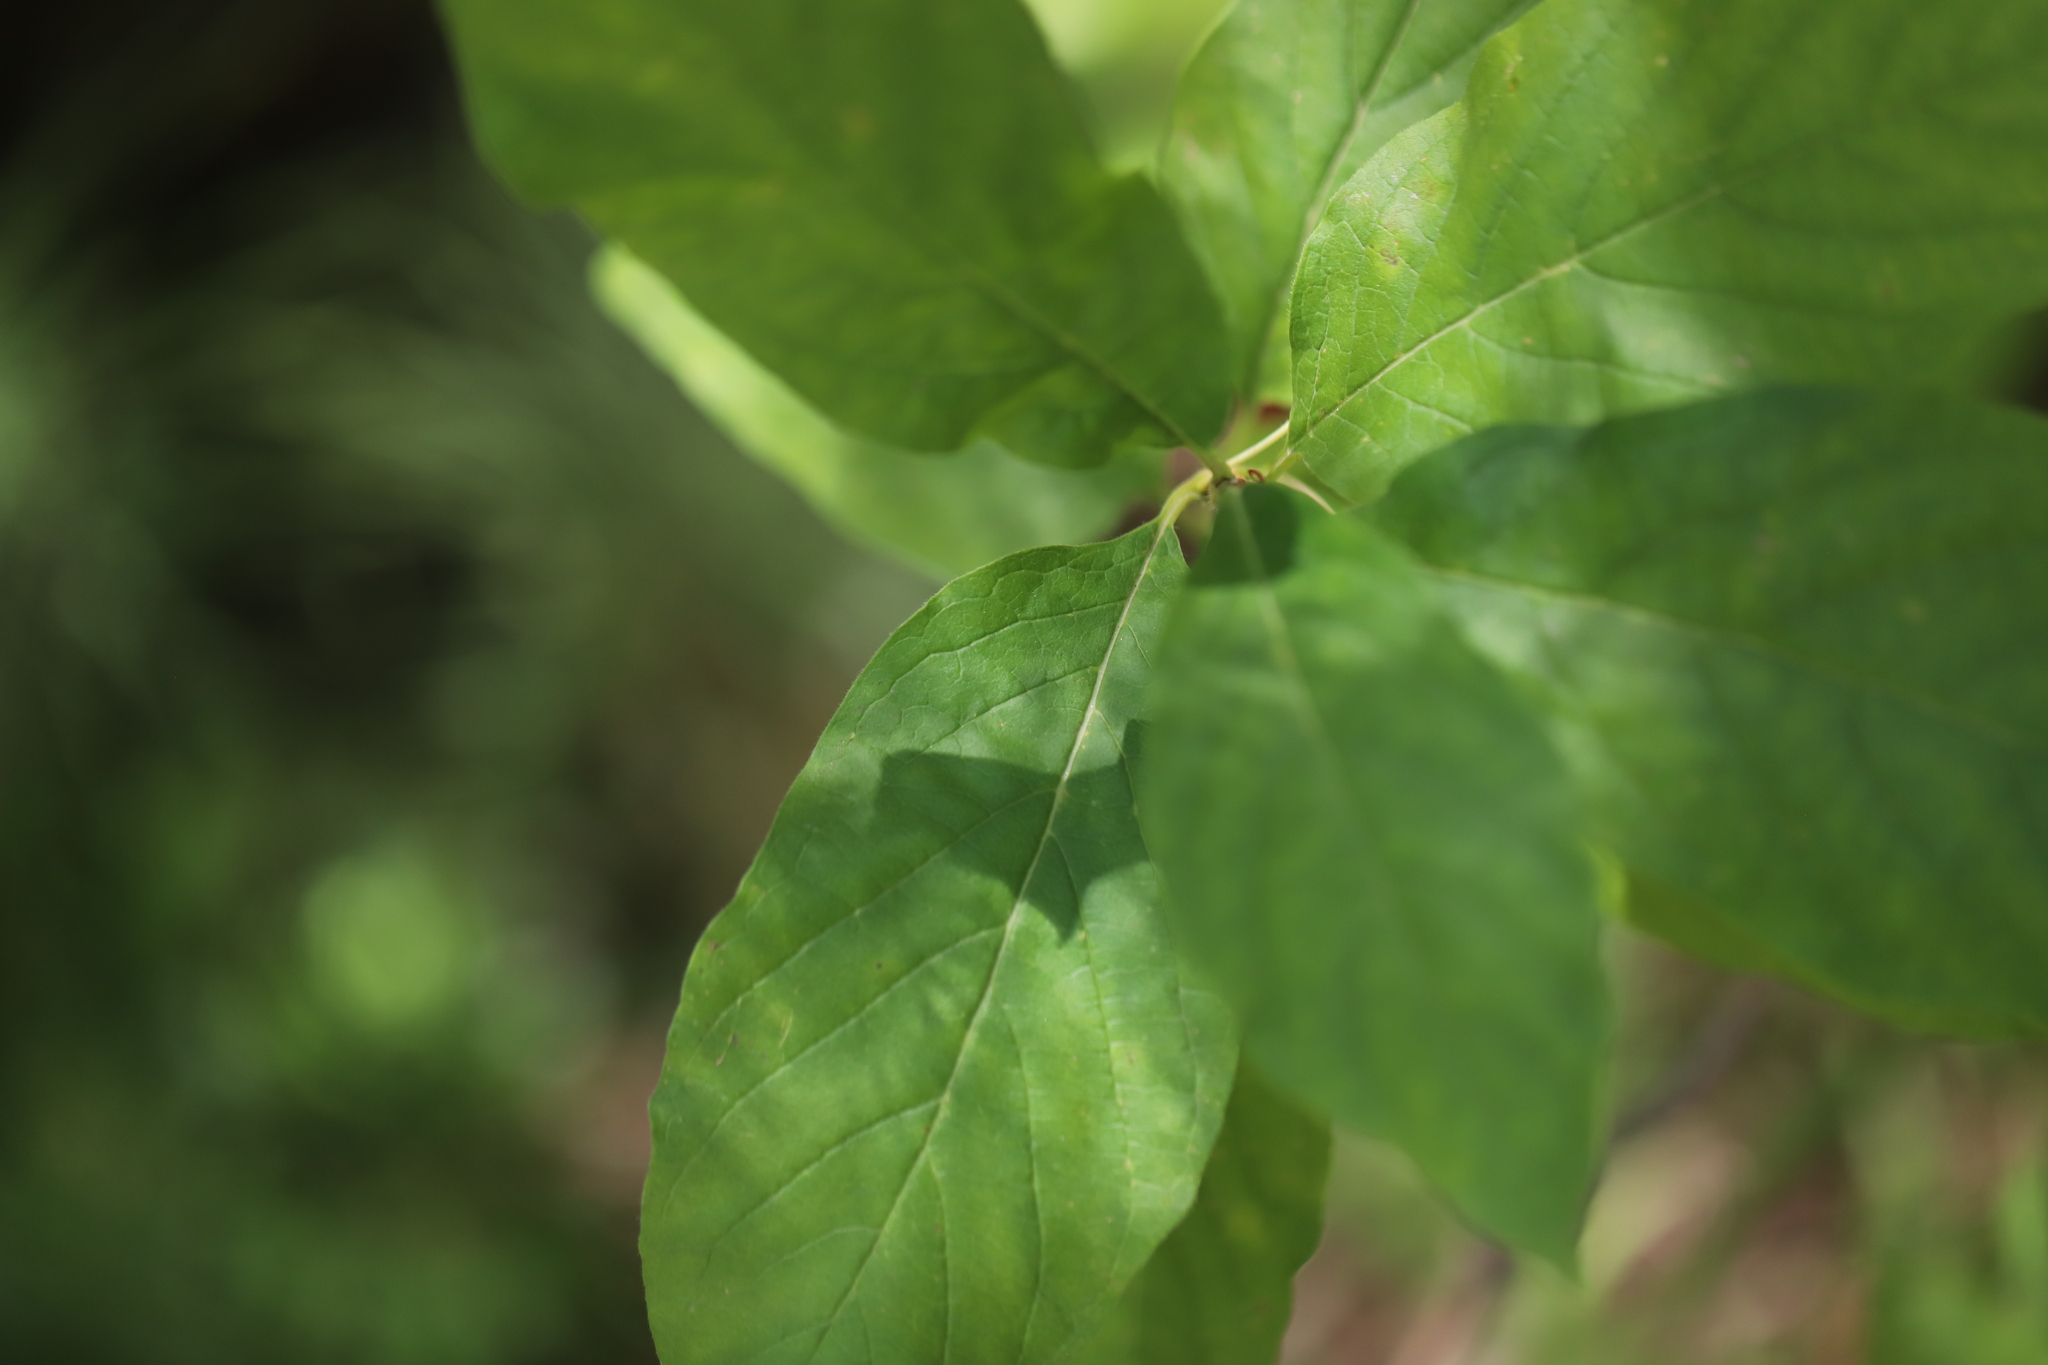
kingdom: Plantae
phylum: Tracheophyta
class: Magnoliopsida
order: Dipsacales
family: Caprifoliaceae
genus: Lonicera
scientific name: Lonicera involucrata
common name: Californian honeysuckle
